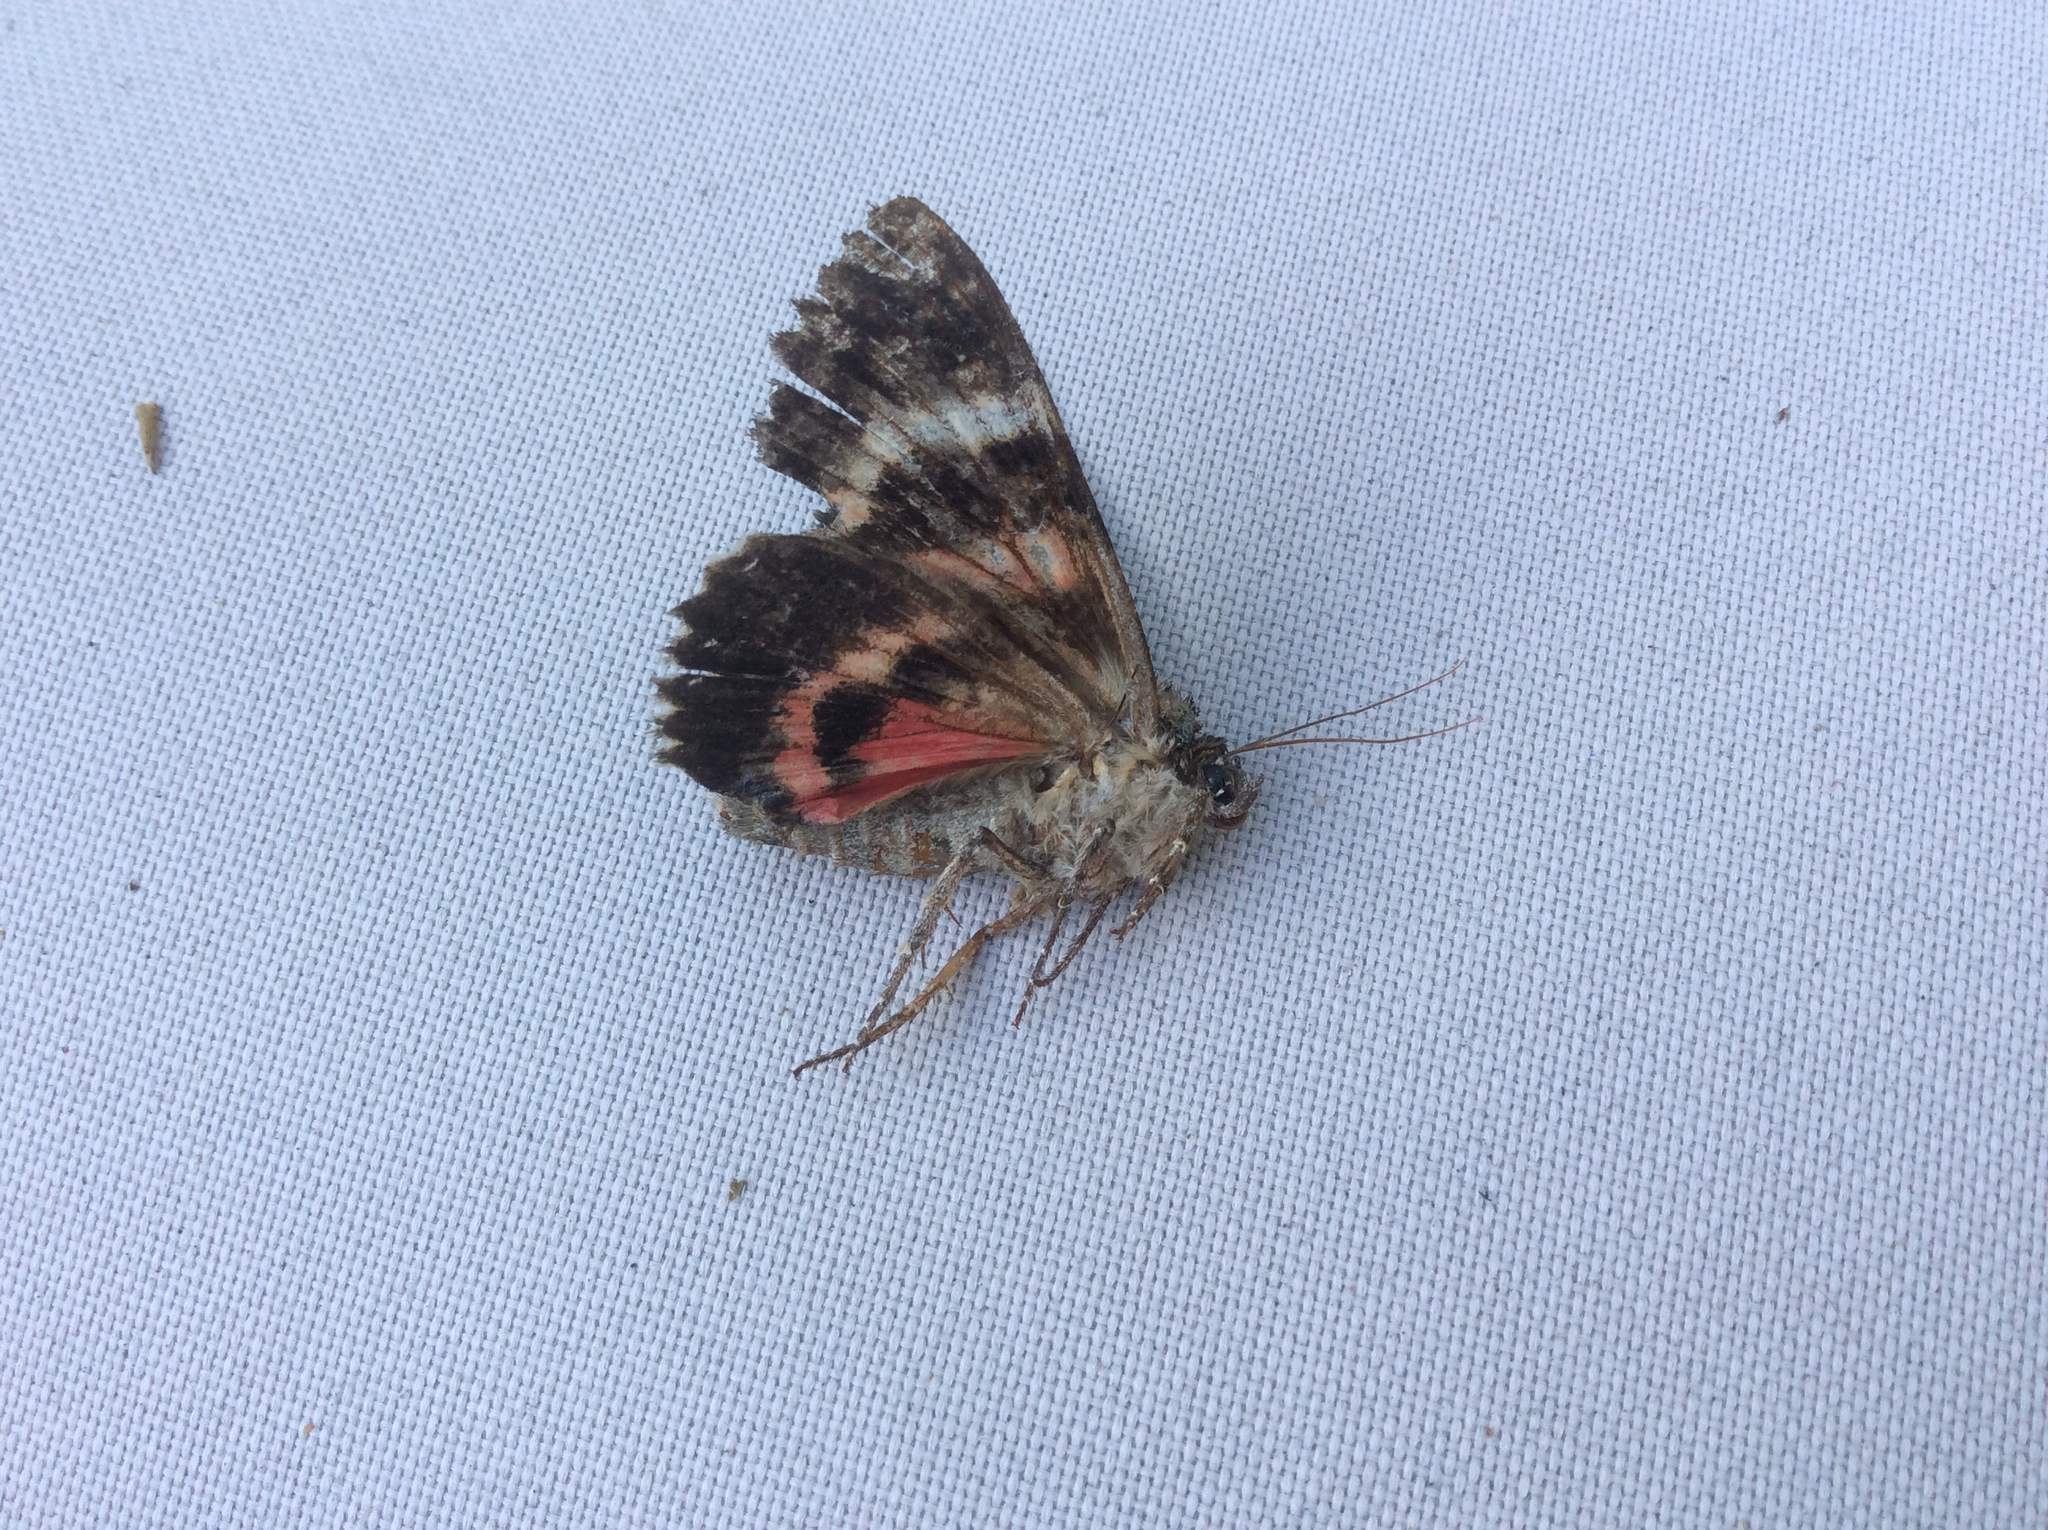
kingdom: Animalia
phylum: Arthropoda
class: Insecta
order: Lepidoptera
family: Erebidae
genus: Catocala
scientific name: Catocala aholibah
